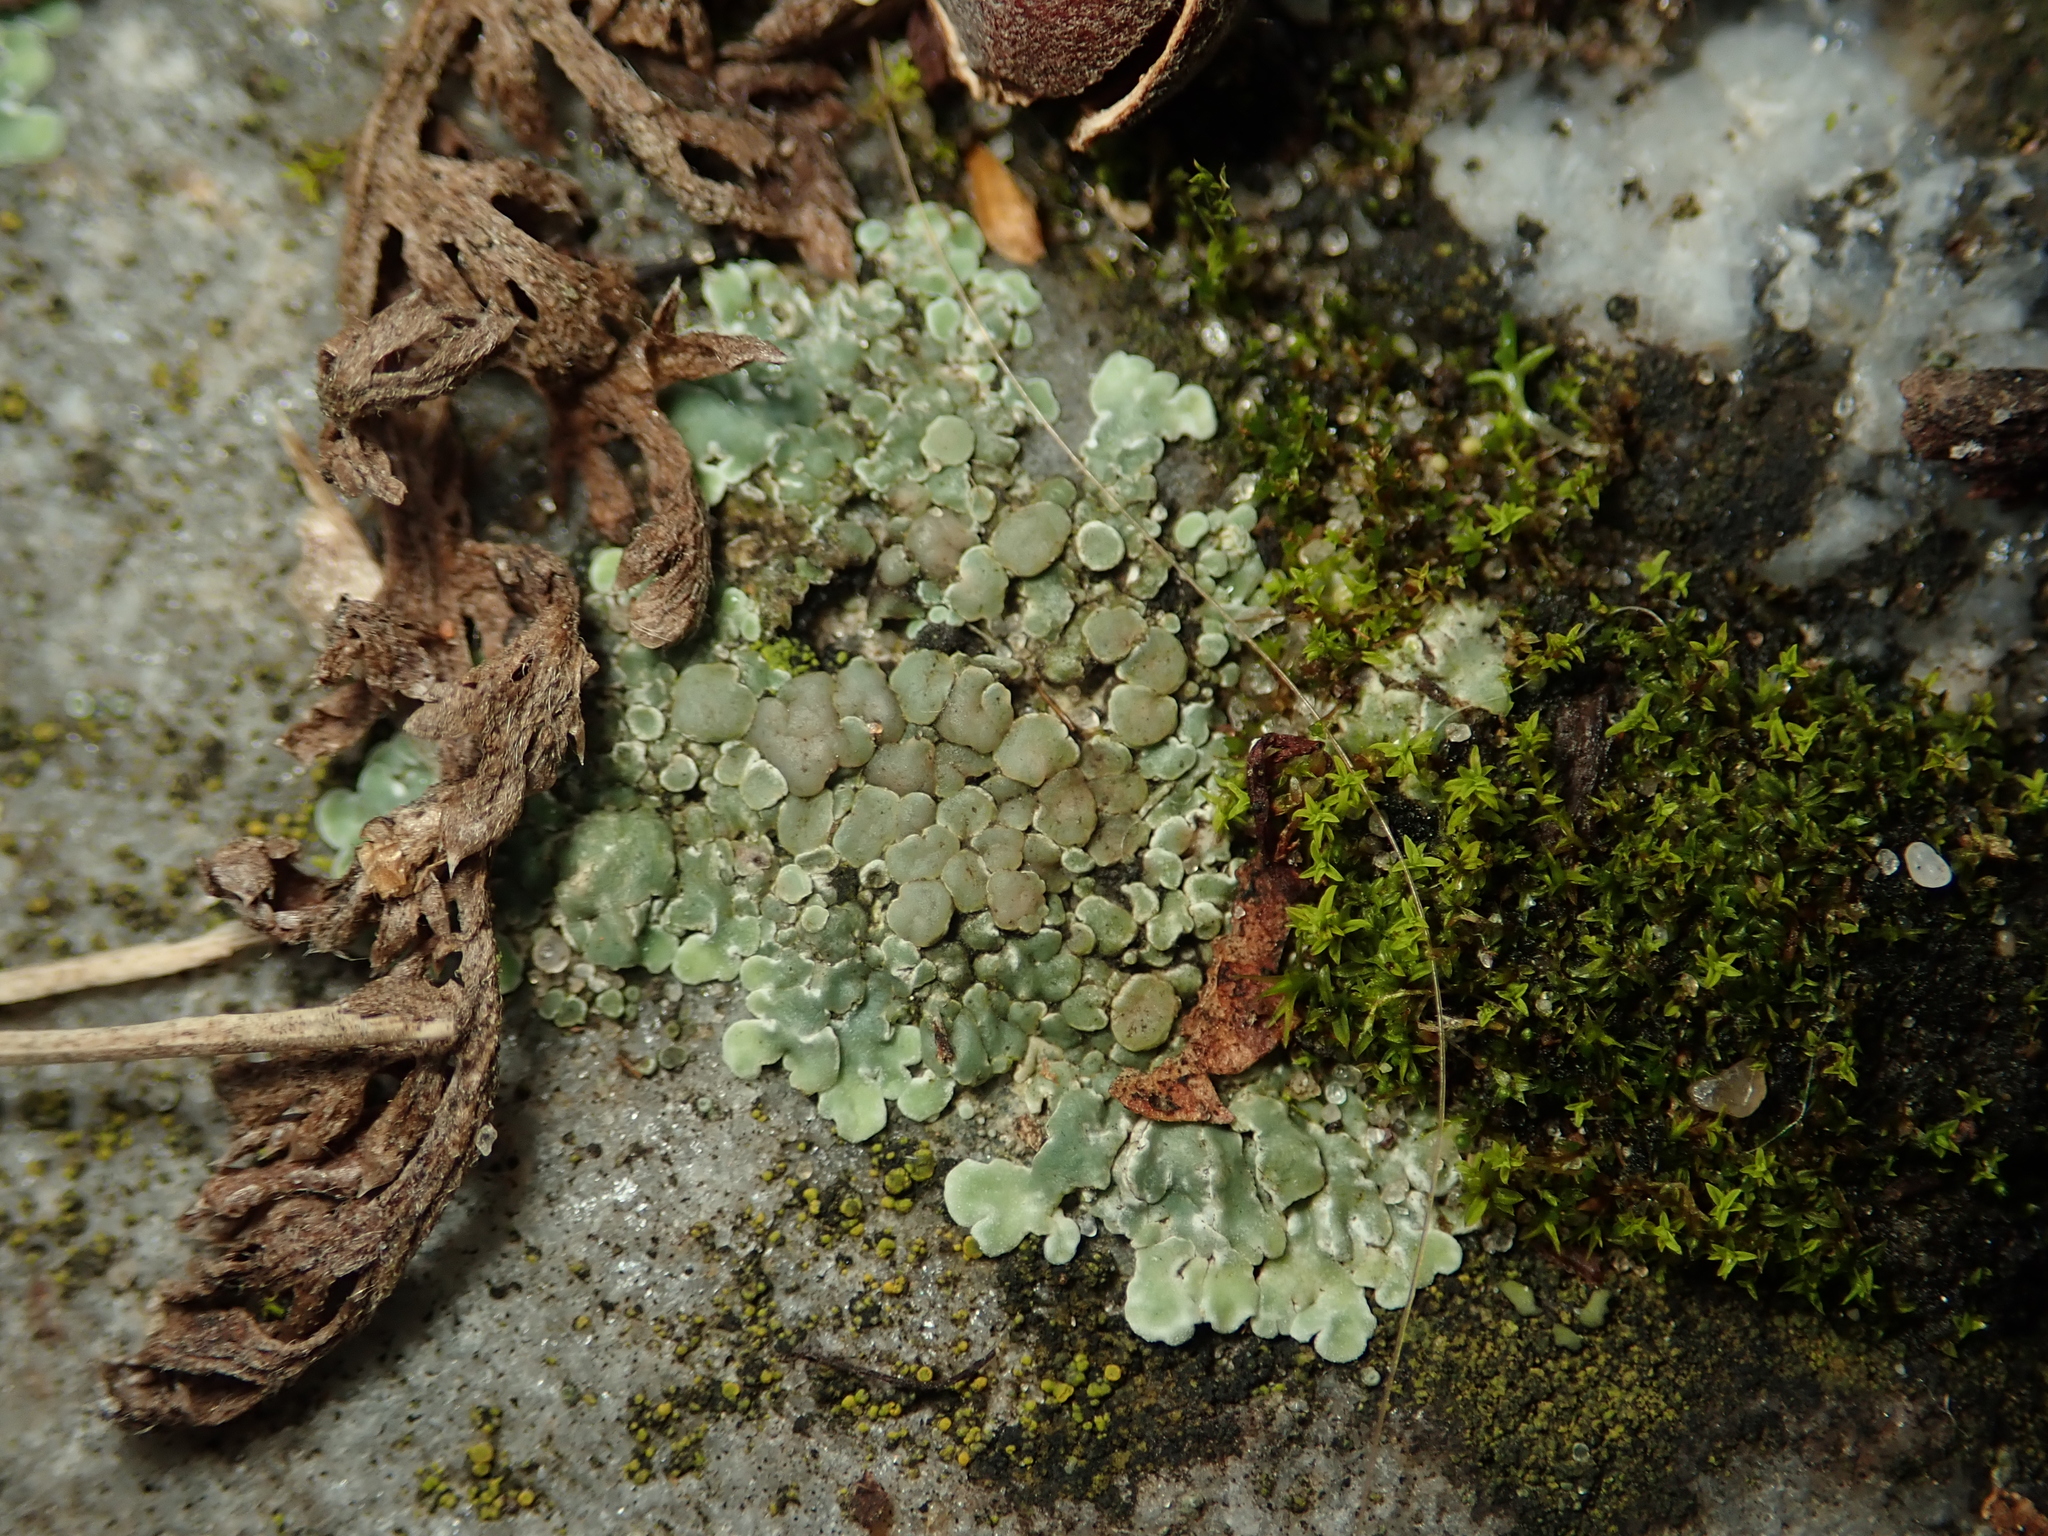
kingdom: Fungi
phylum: Ascomycota
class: Lecanoromycetes
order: Lecanorales
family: Lecanoraceae
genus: Protoparmeliopsis
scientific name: Protoparmeliopsis muralis
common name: Stonewall rim lichen
